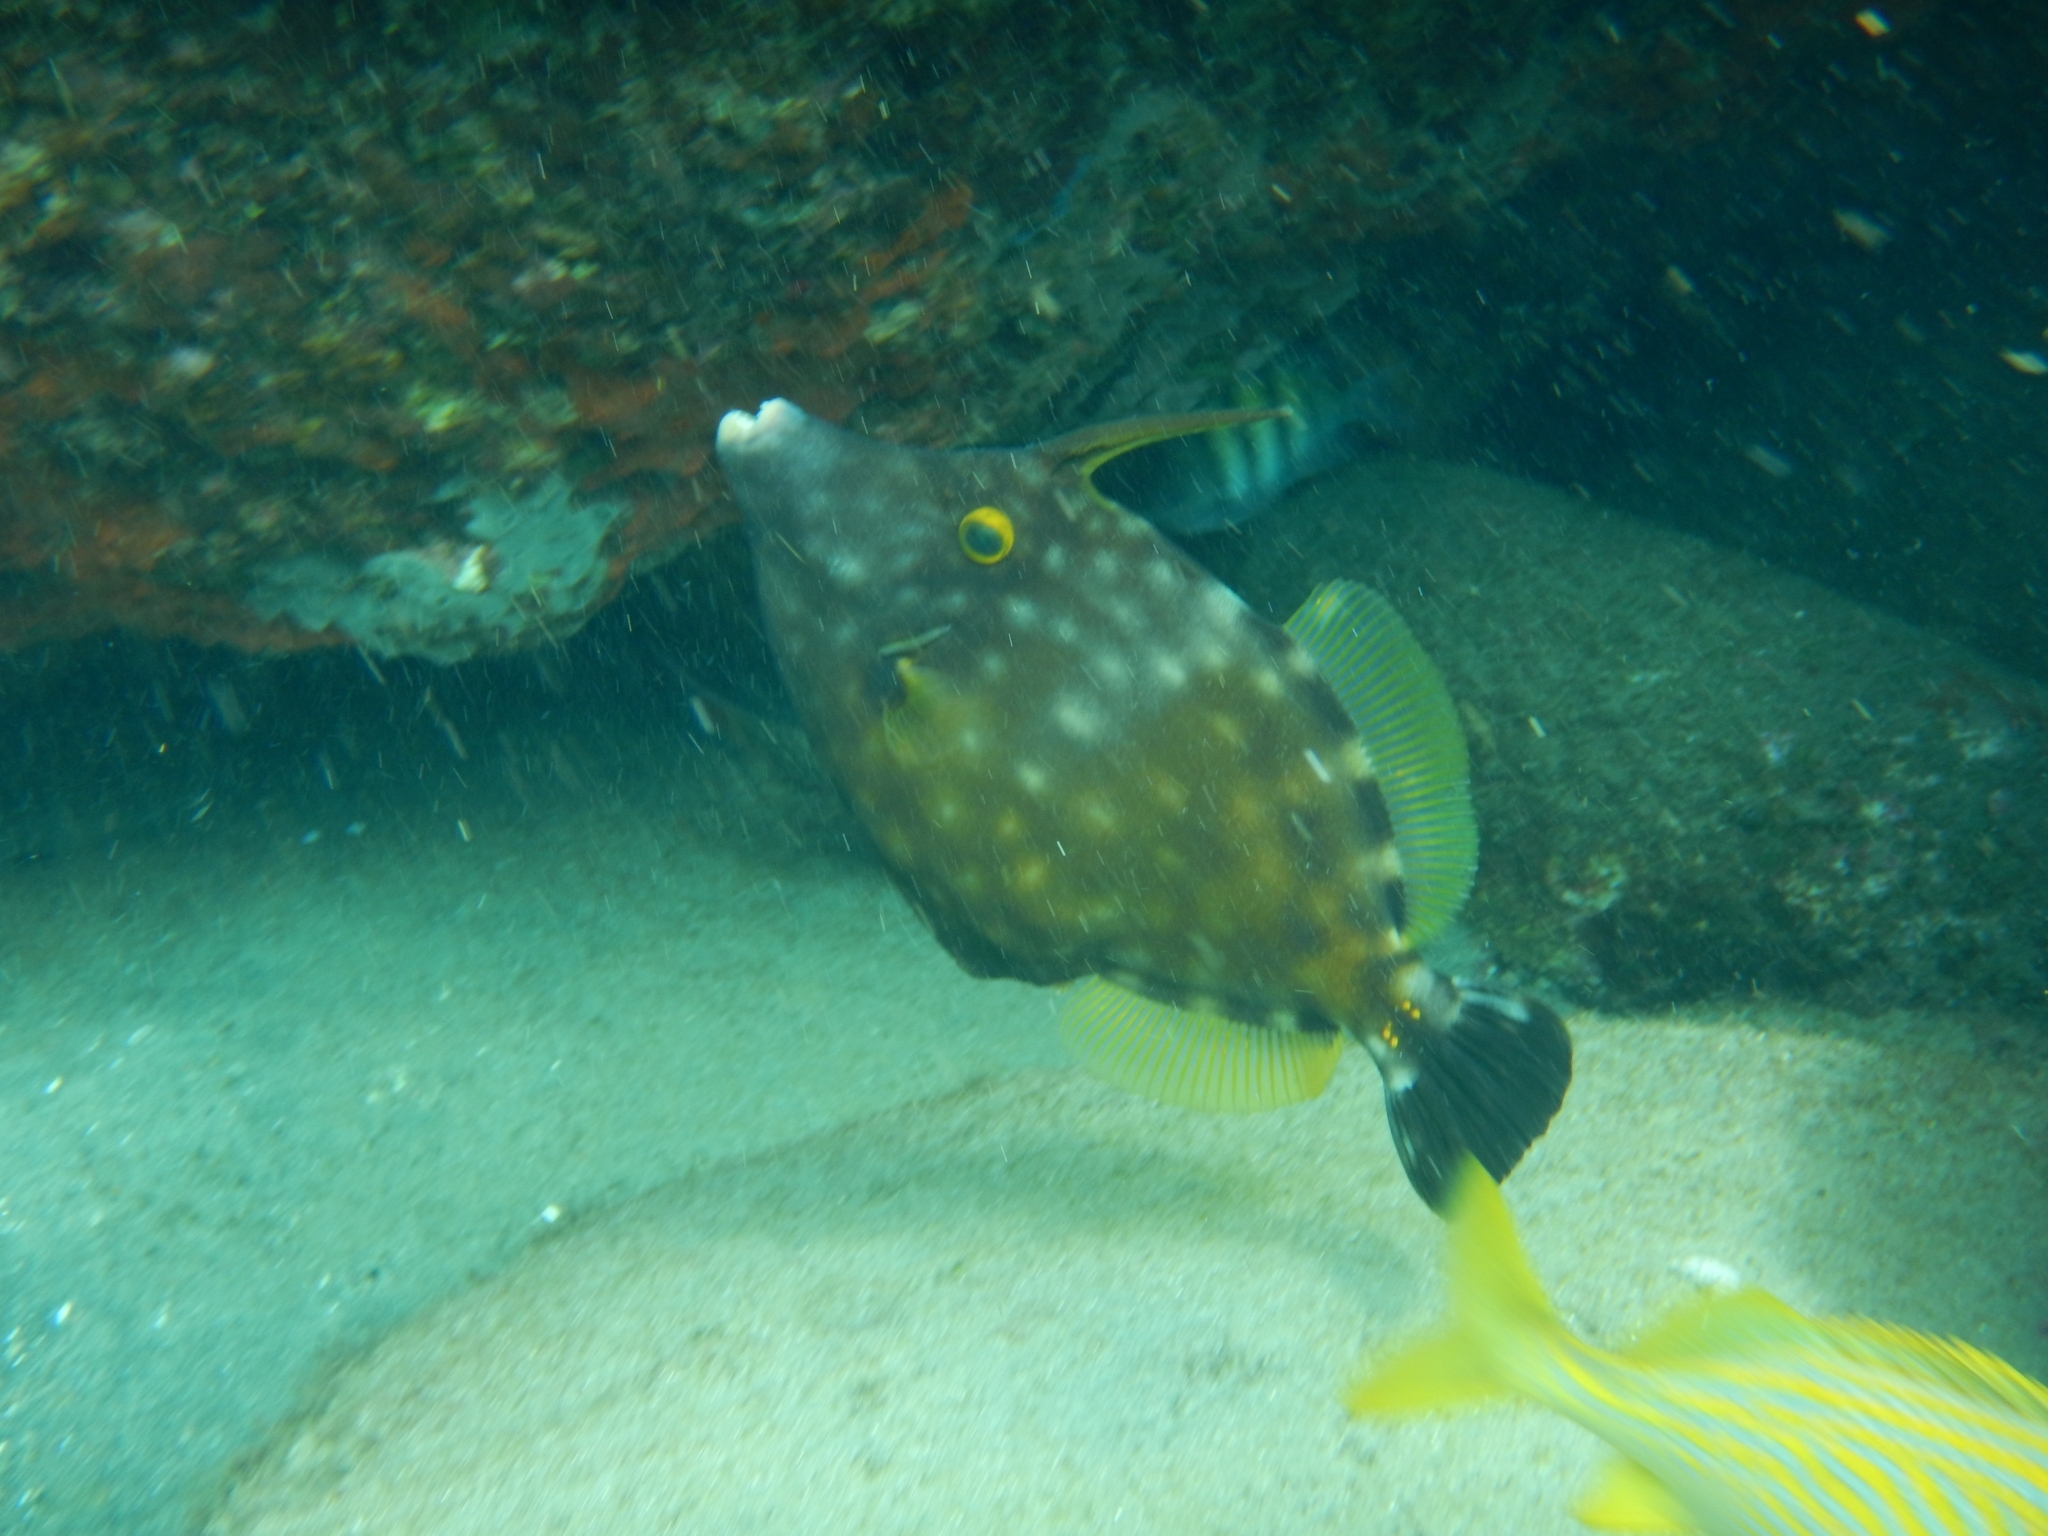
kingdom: Animalia
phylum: Chordata
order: Tetraodontiformes
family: Monacanthidae
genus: Cantherhines
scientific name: Cantherhines macrocerus
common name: Whitespotted filefish
